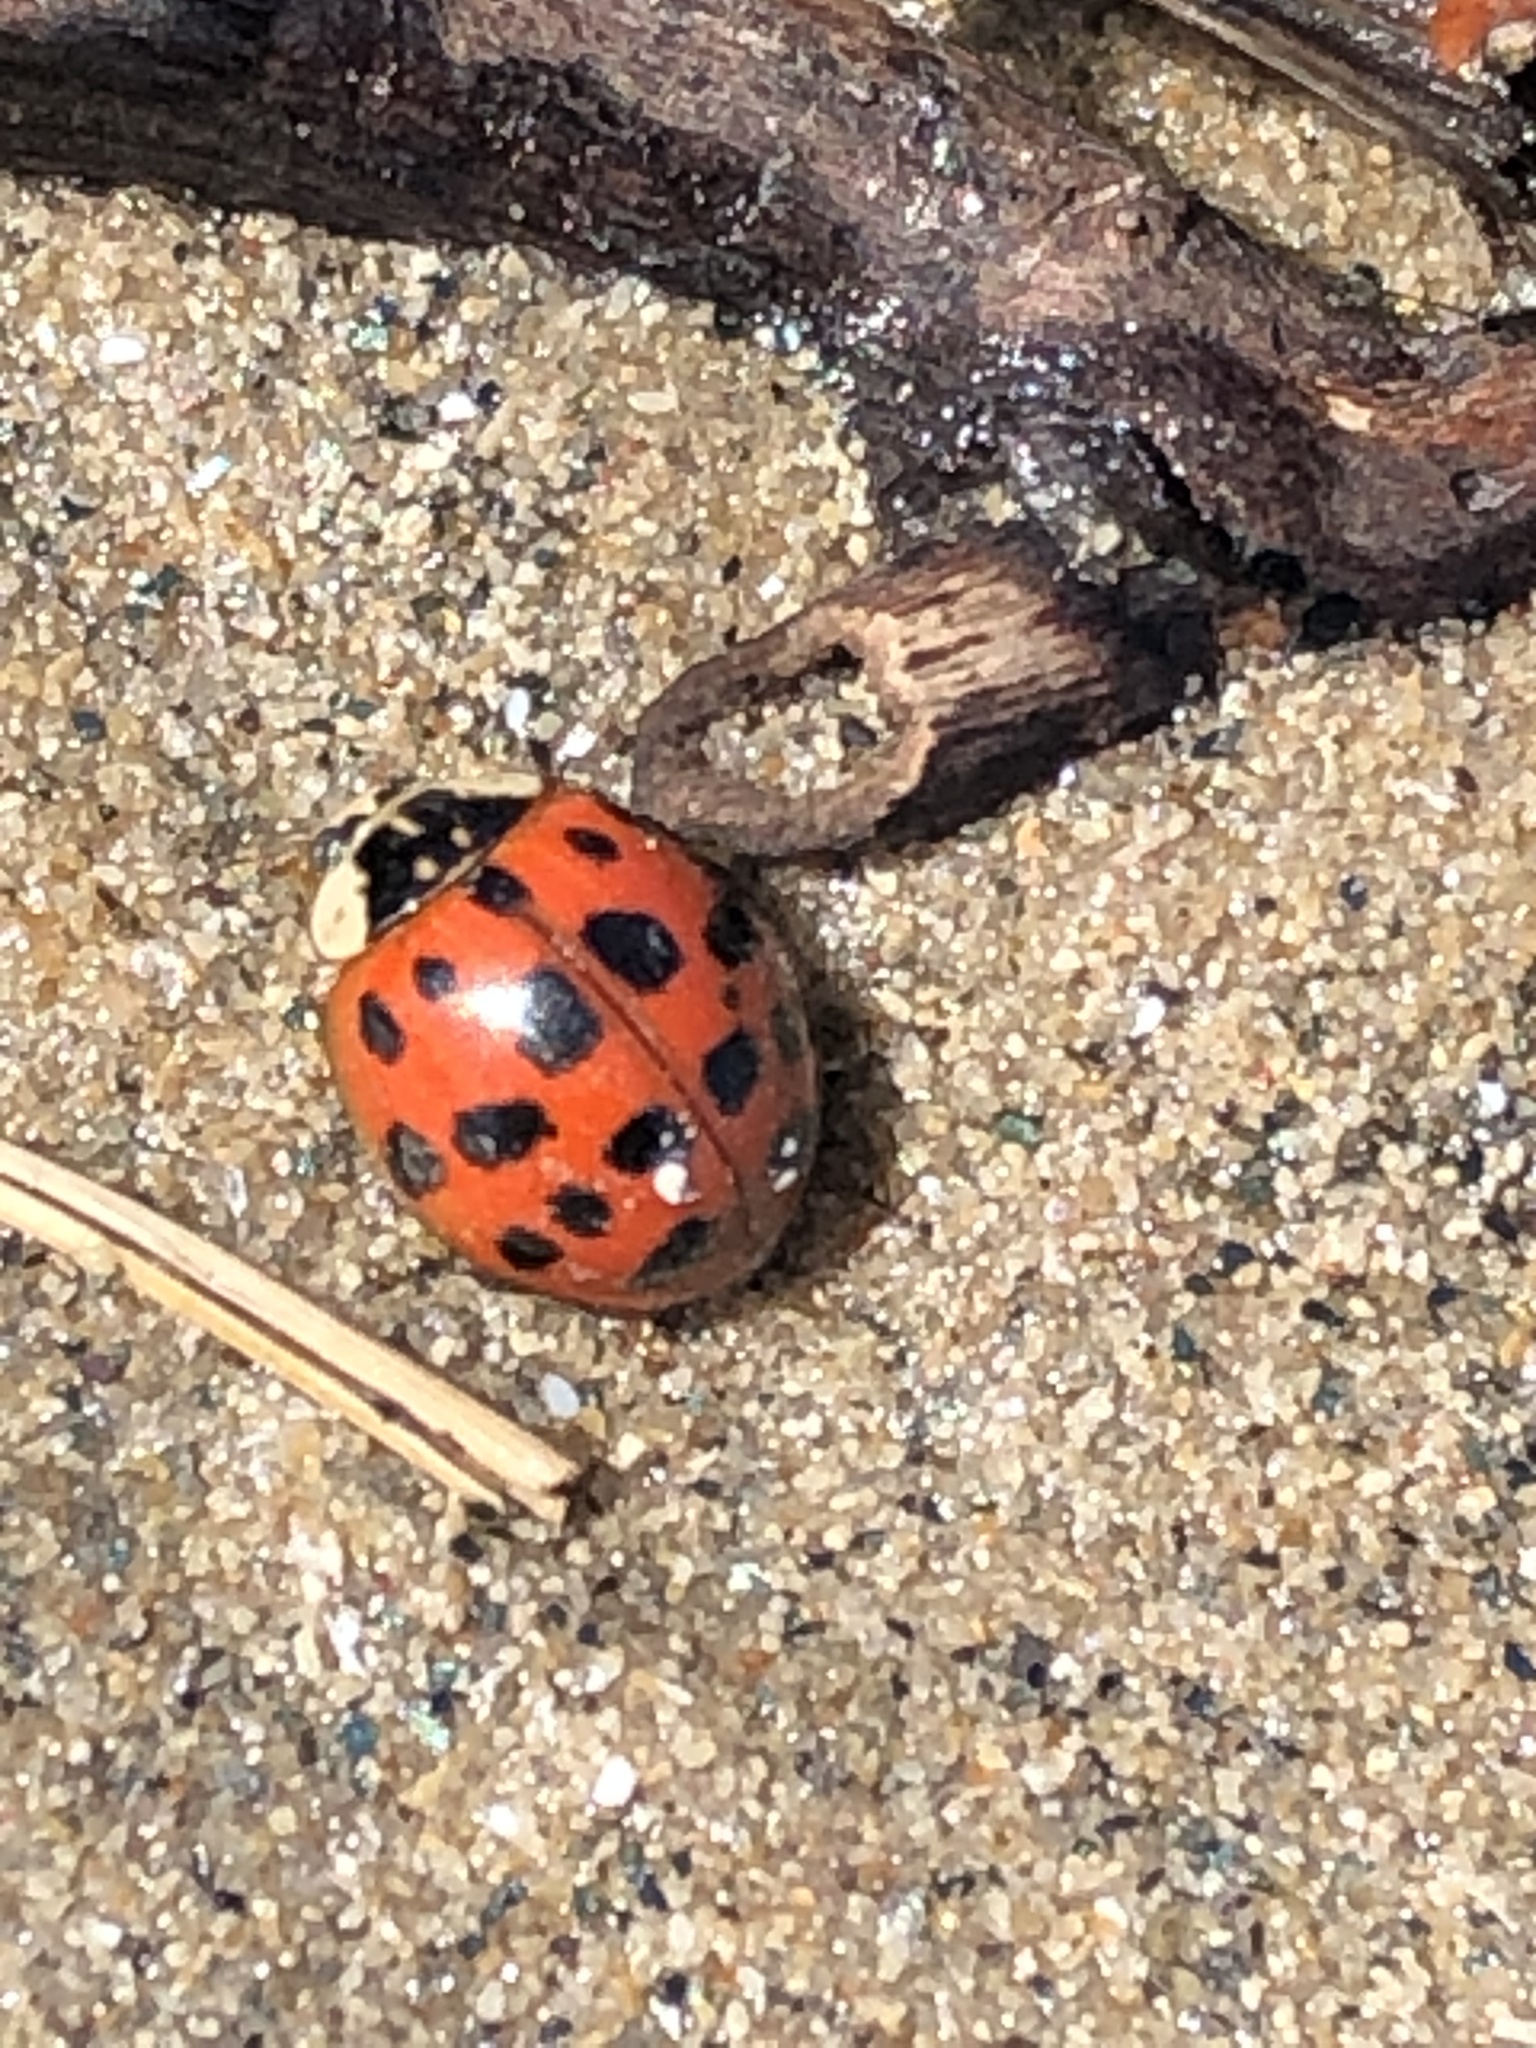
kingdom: Animalia
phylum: Arthropoda
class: Insecta
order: Coleoptera
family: Coccinellidae
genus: Harmonia
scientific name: Harmonia axyridis
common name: Harlequin ladybird
